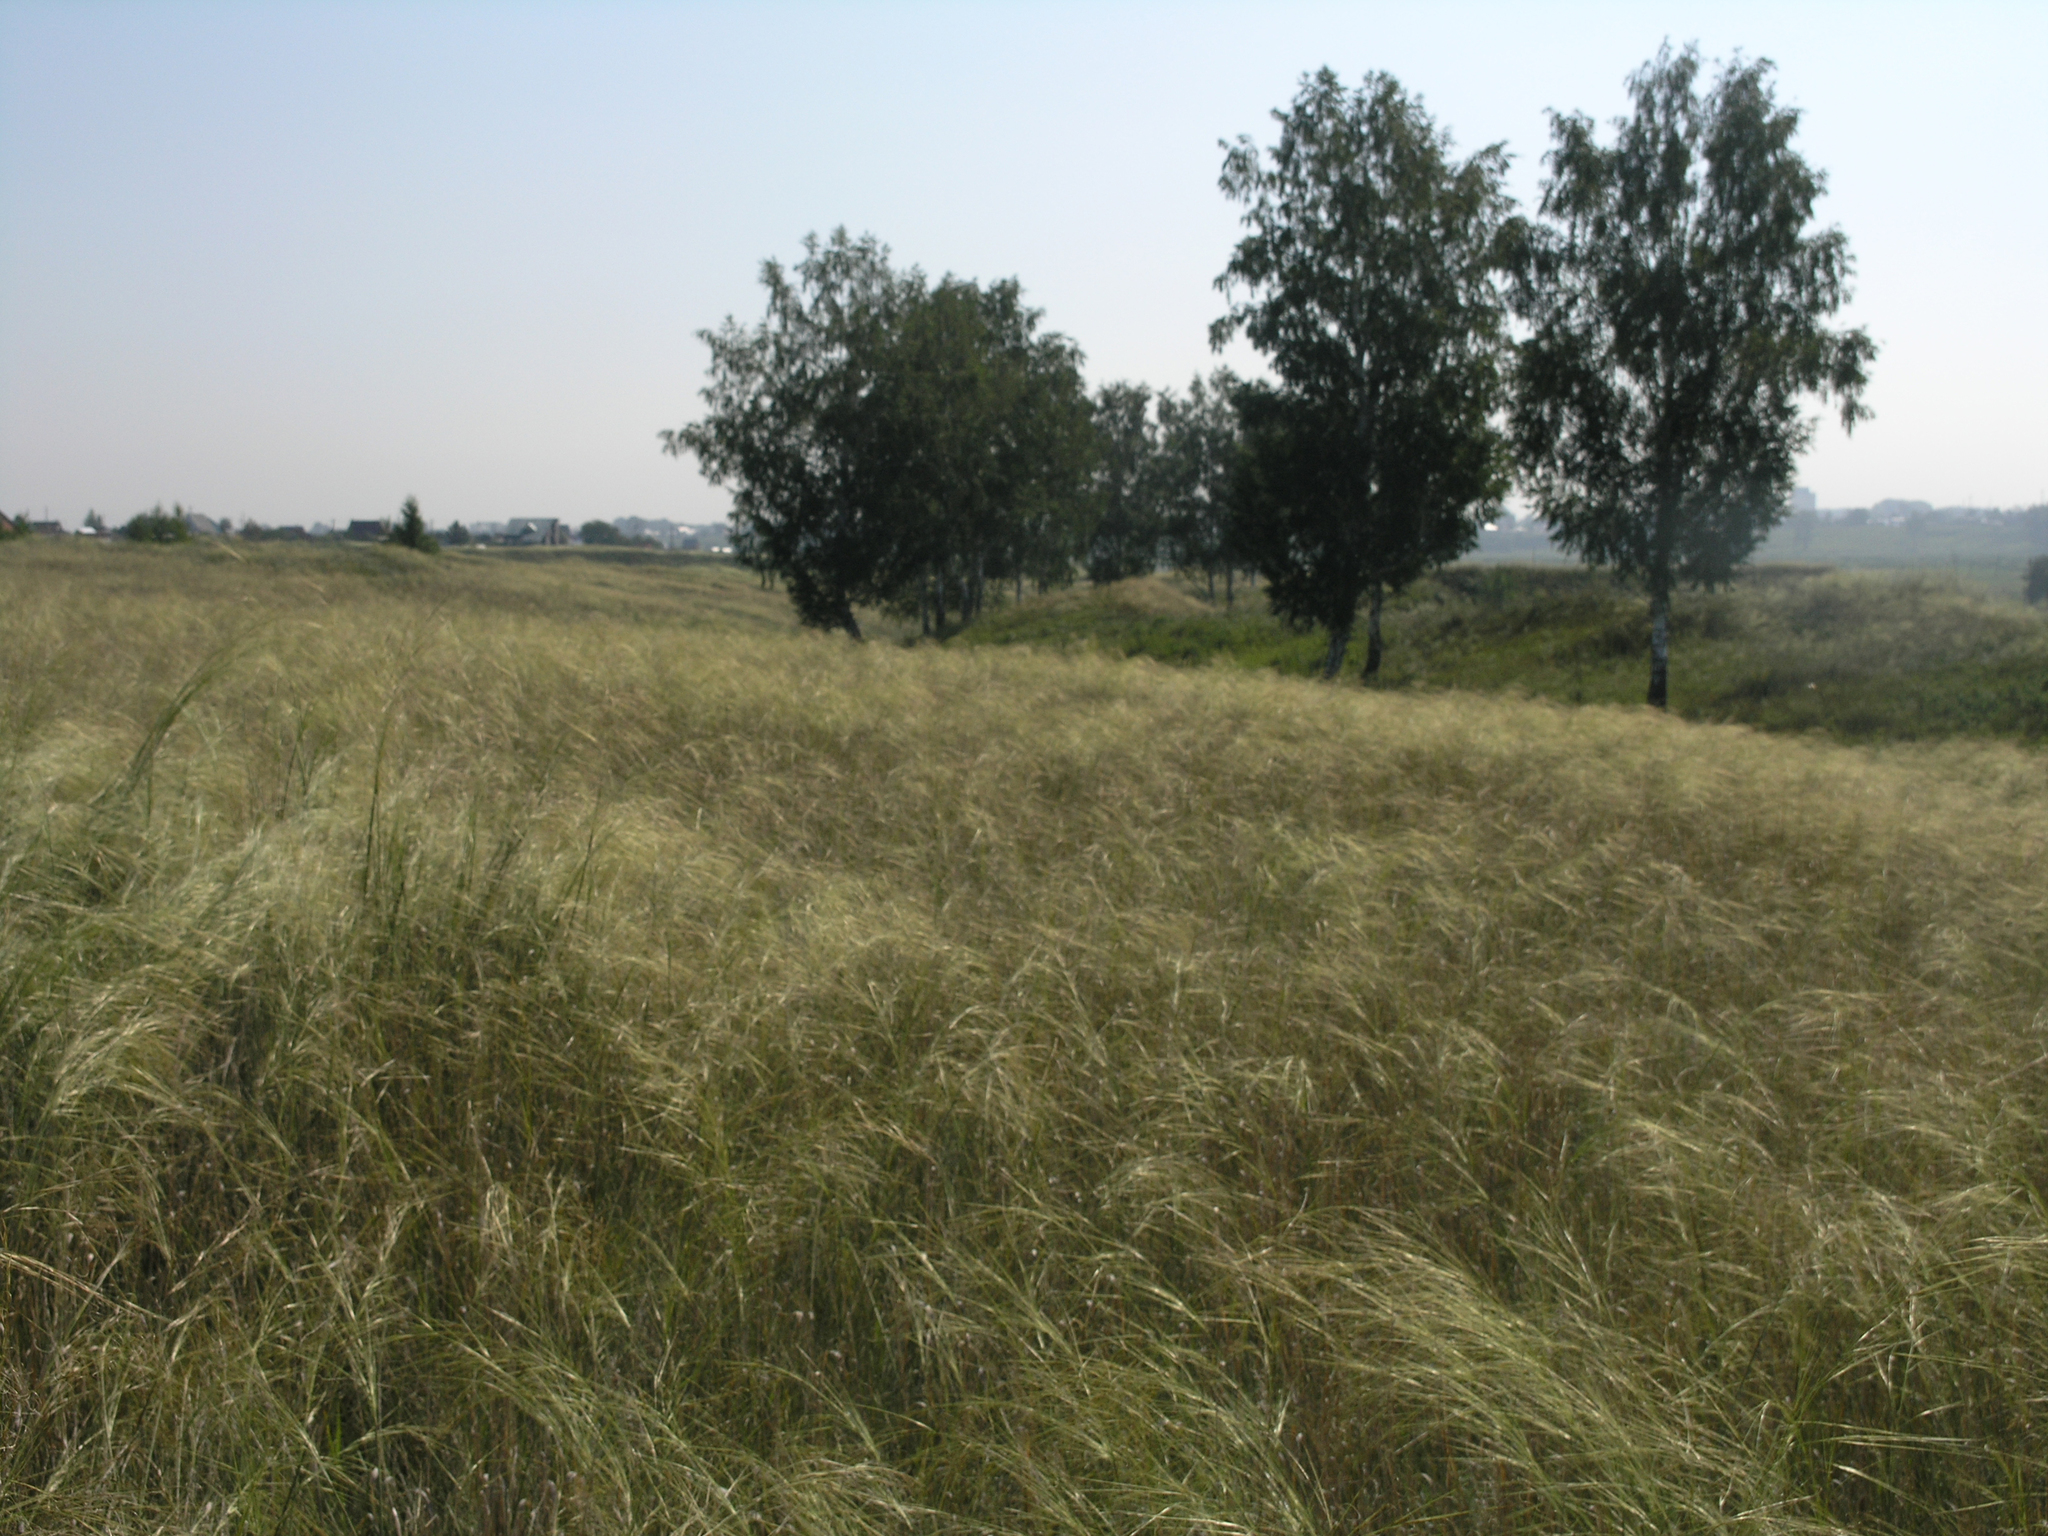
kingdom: Plantae
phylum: Tracheophyta
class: Liliopsida
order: Poales
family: Poaceae
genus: Stipa
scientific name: Stipa capillata
